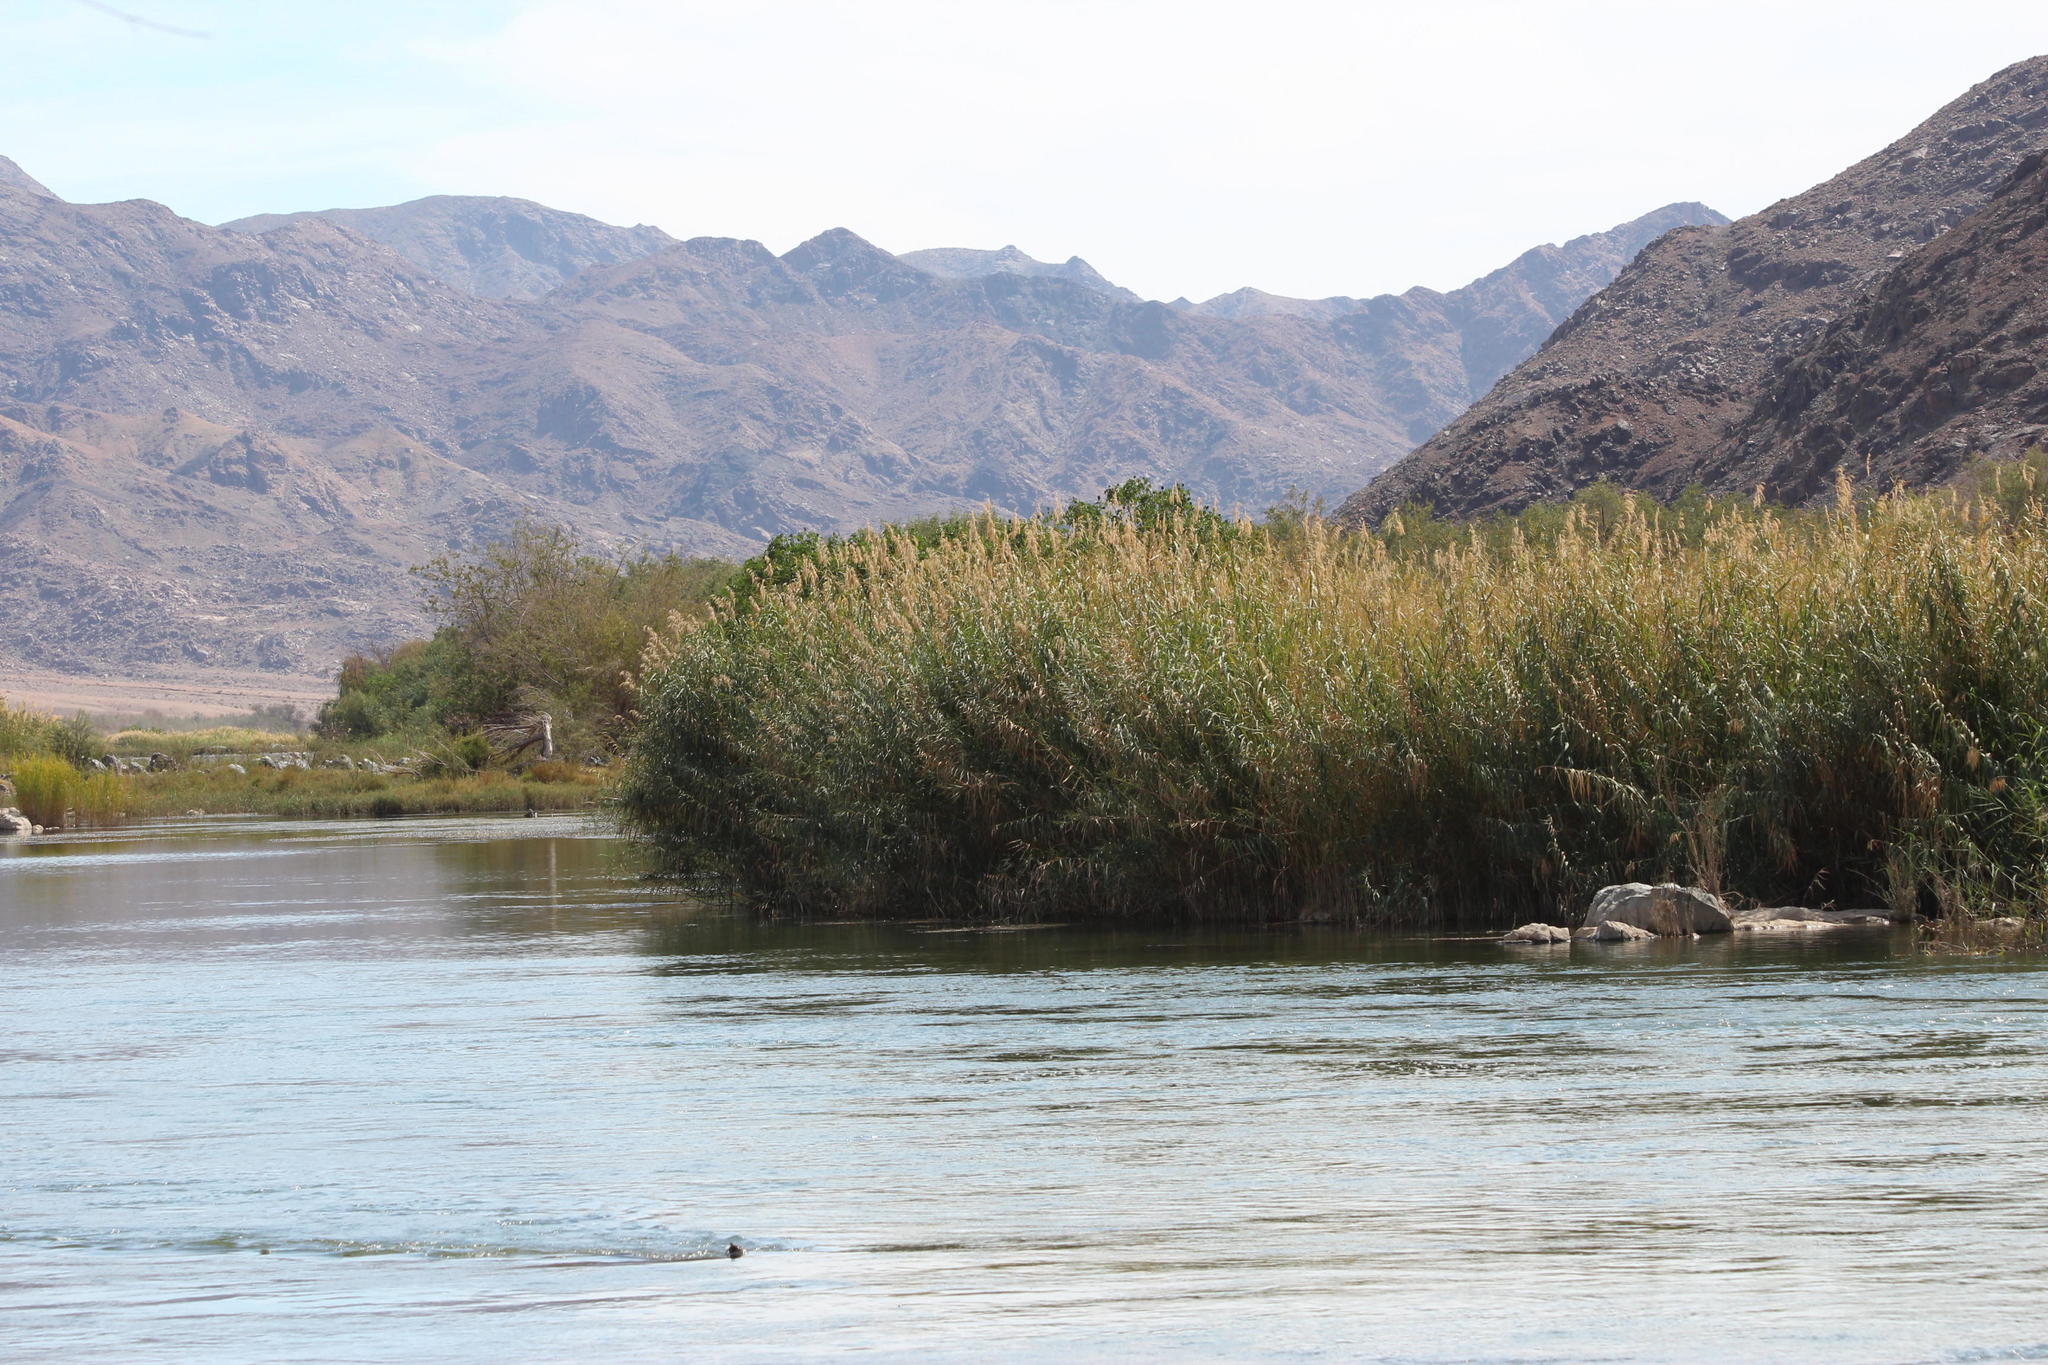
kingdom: Plantae
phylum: Tracheophyta
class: Liliopsida
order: Poales
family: Poaceae
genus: Phragmites
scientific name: Phragmites australis
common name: Common reed
